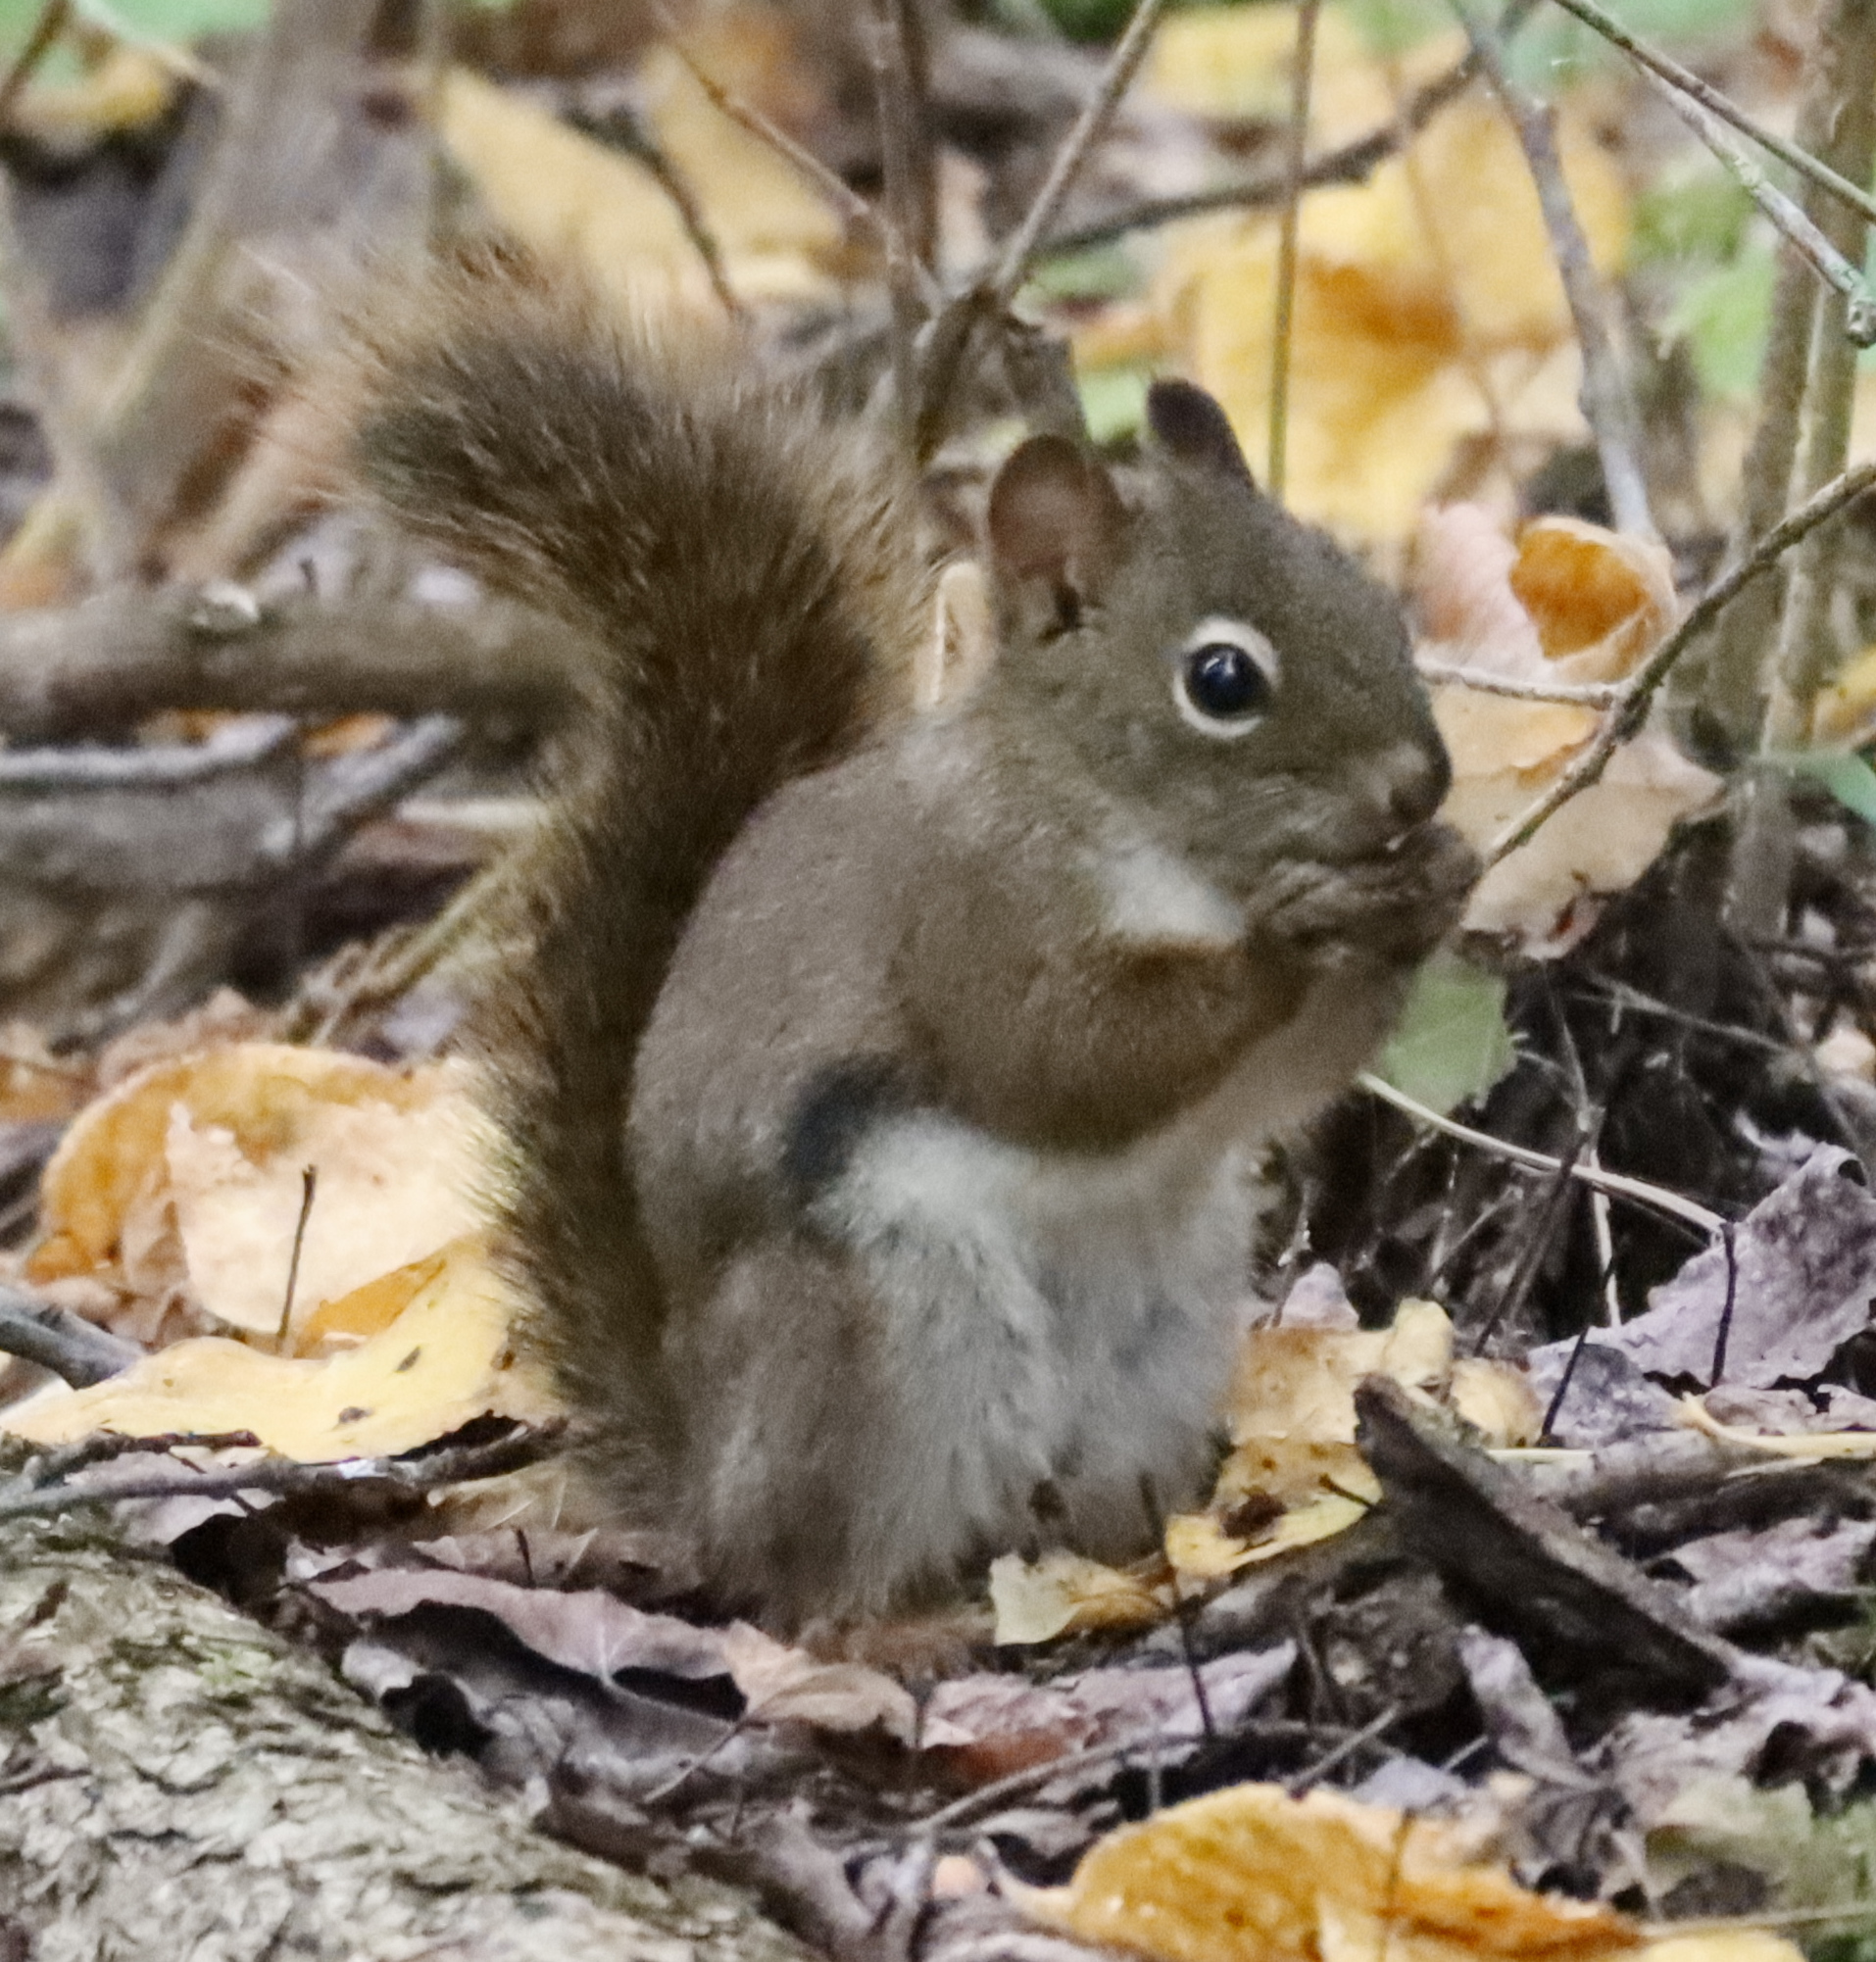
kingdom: Animalia
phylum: Chordata
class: Mammalia
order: Rodentia
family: Sciuridae
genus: Tamiasciurus
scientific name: Tamiasciurus hudsonicus
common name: Red squirrel
